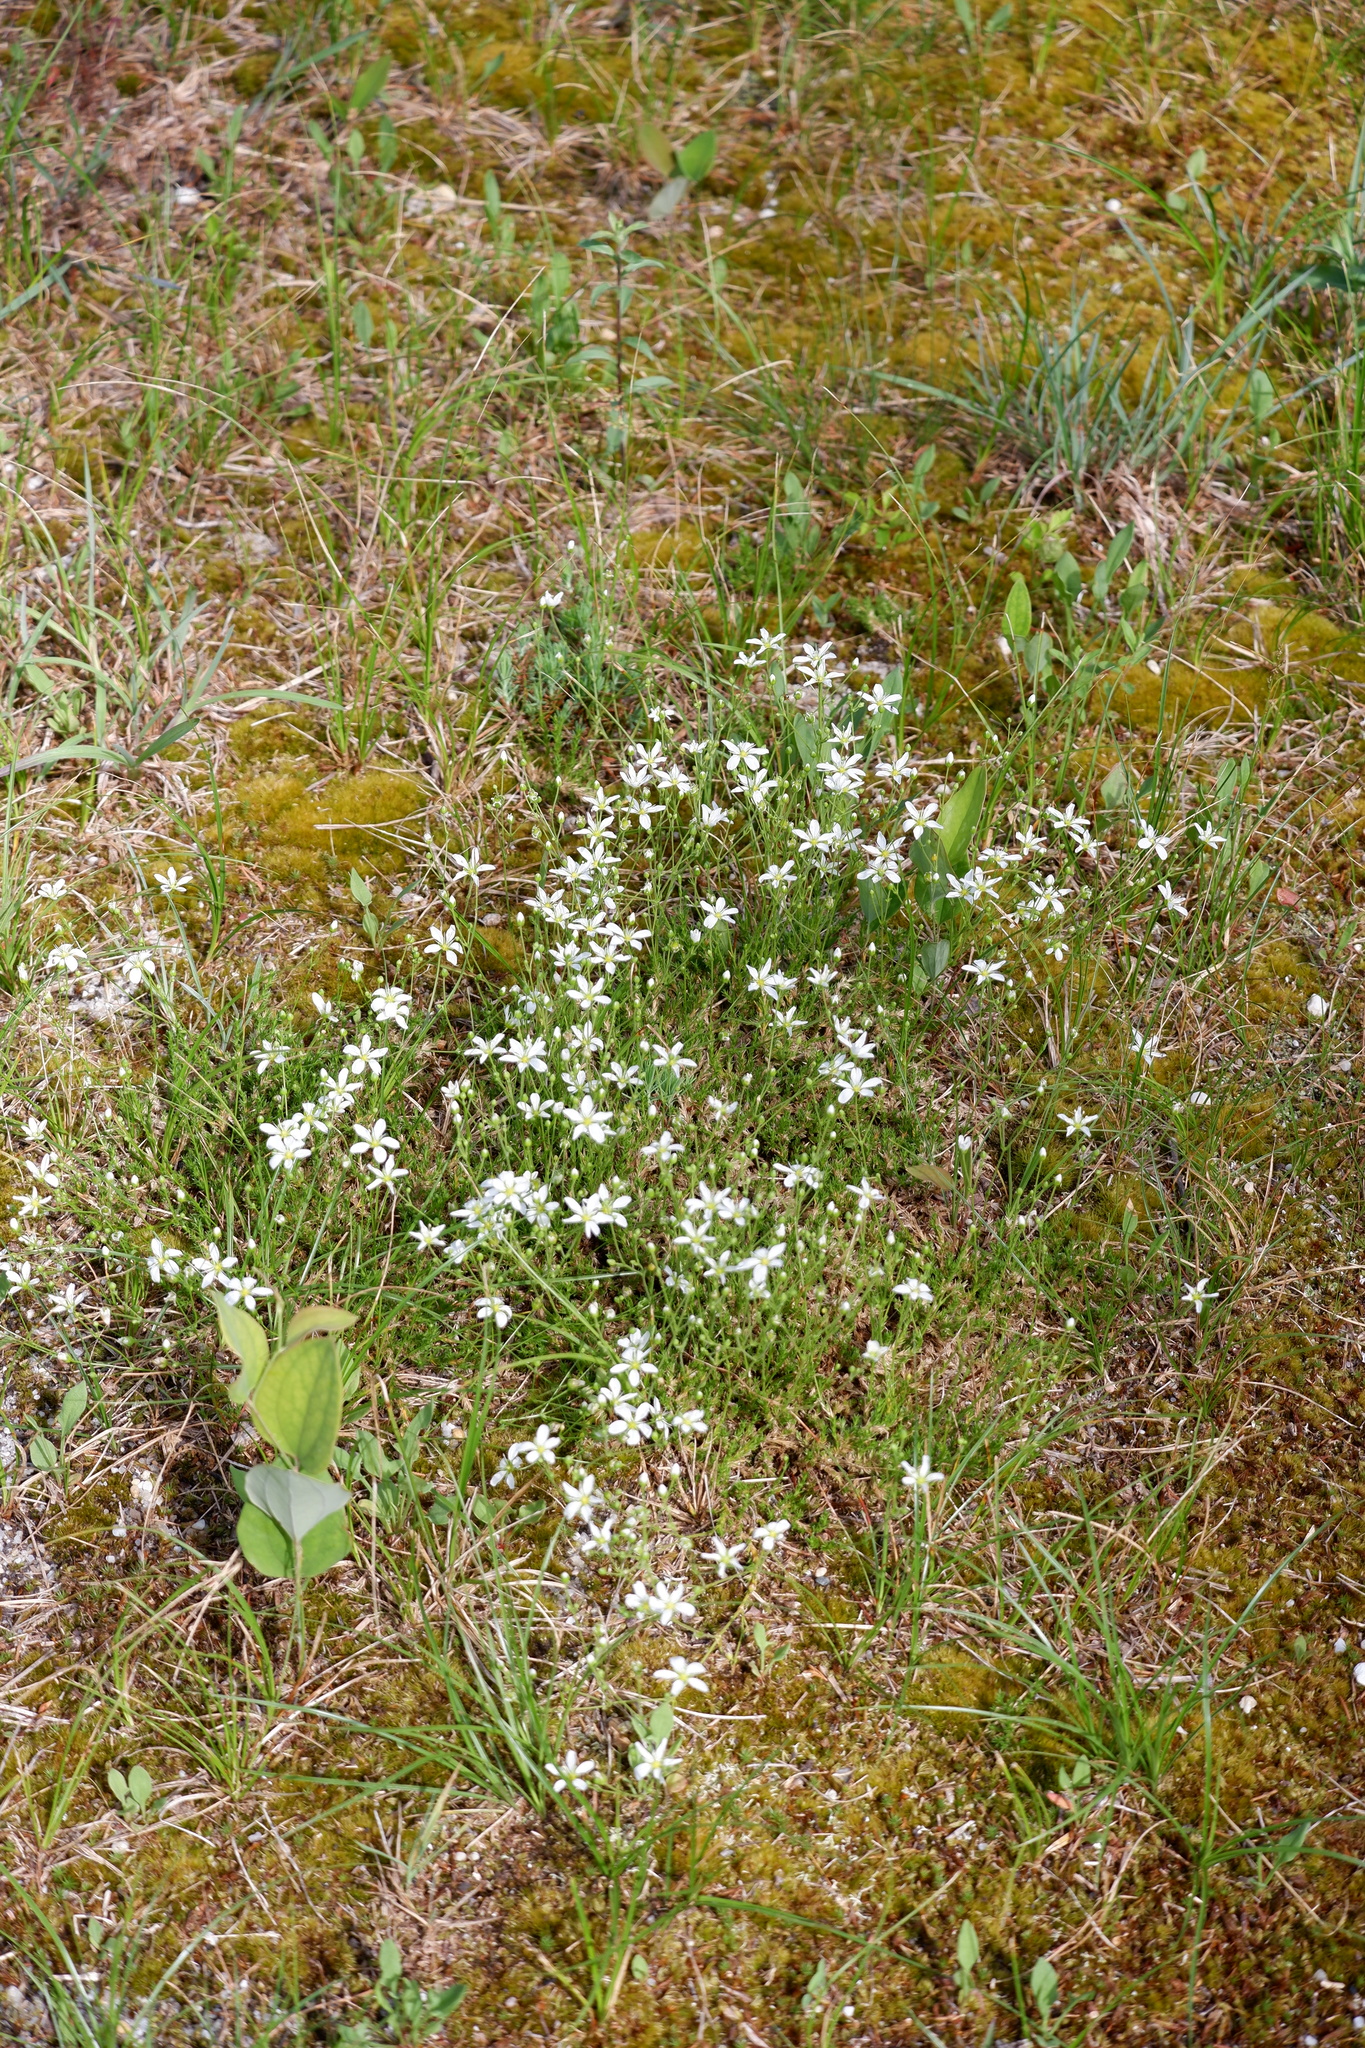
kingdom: Plantae
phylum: Tracheophyta
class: Magnoliopsida
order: Caryophyllales
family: Caryophyllaceae
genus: Geocarpon
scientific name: Geocarpon carolinianum
